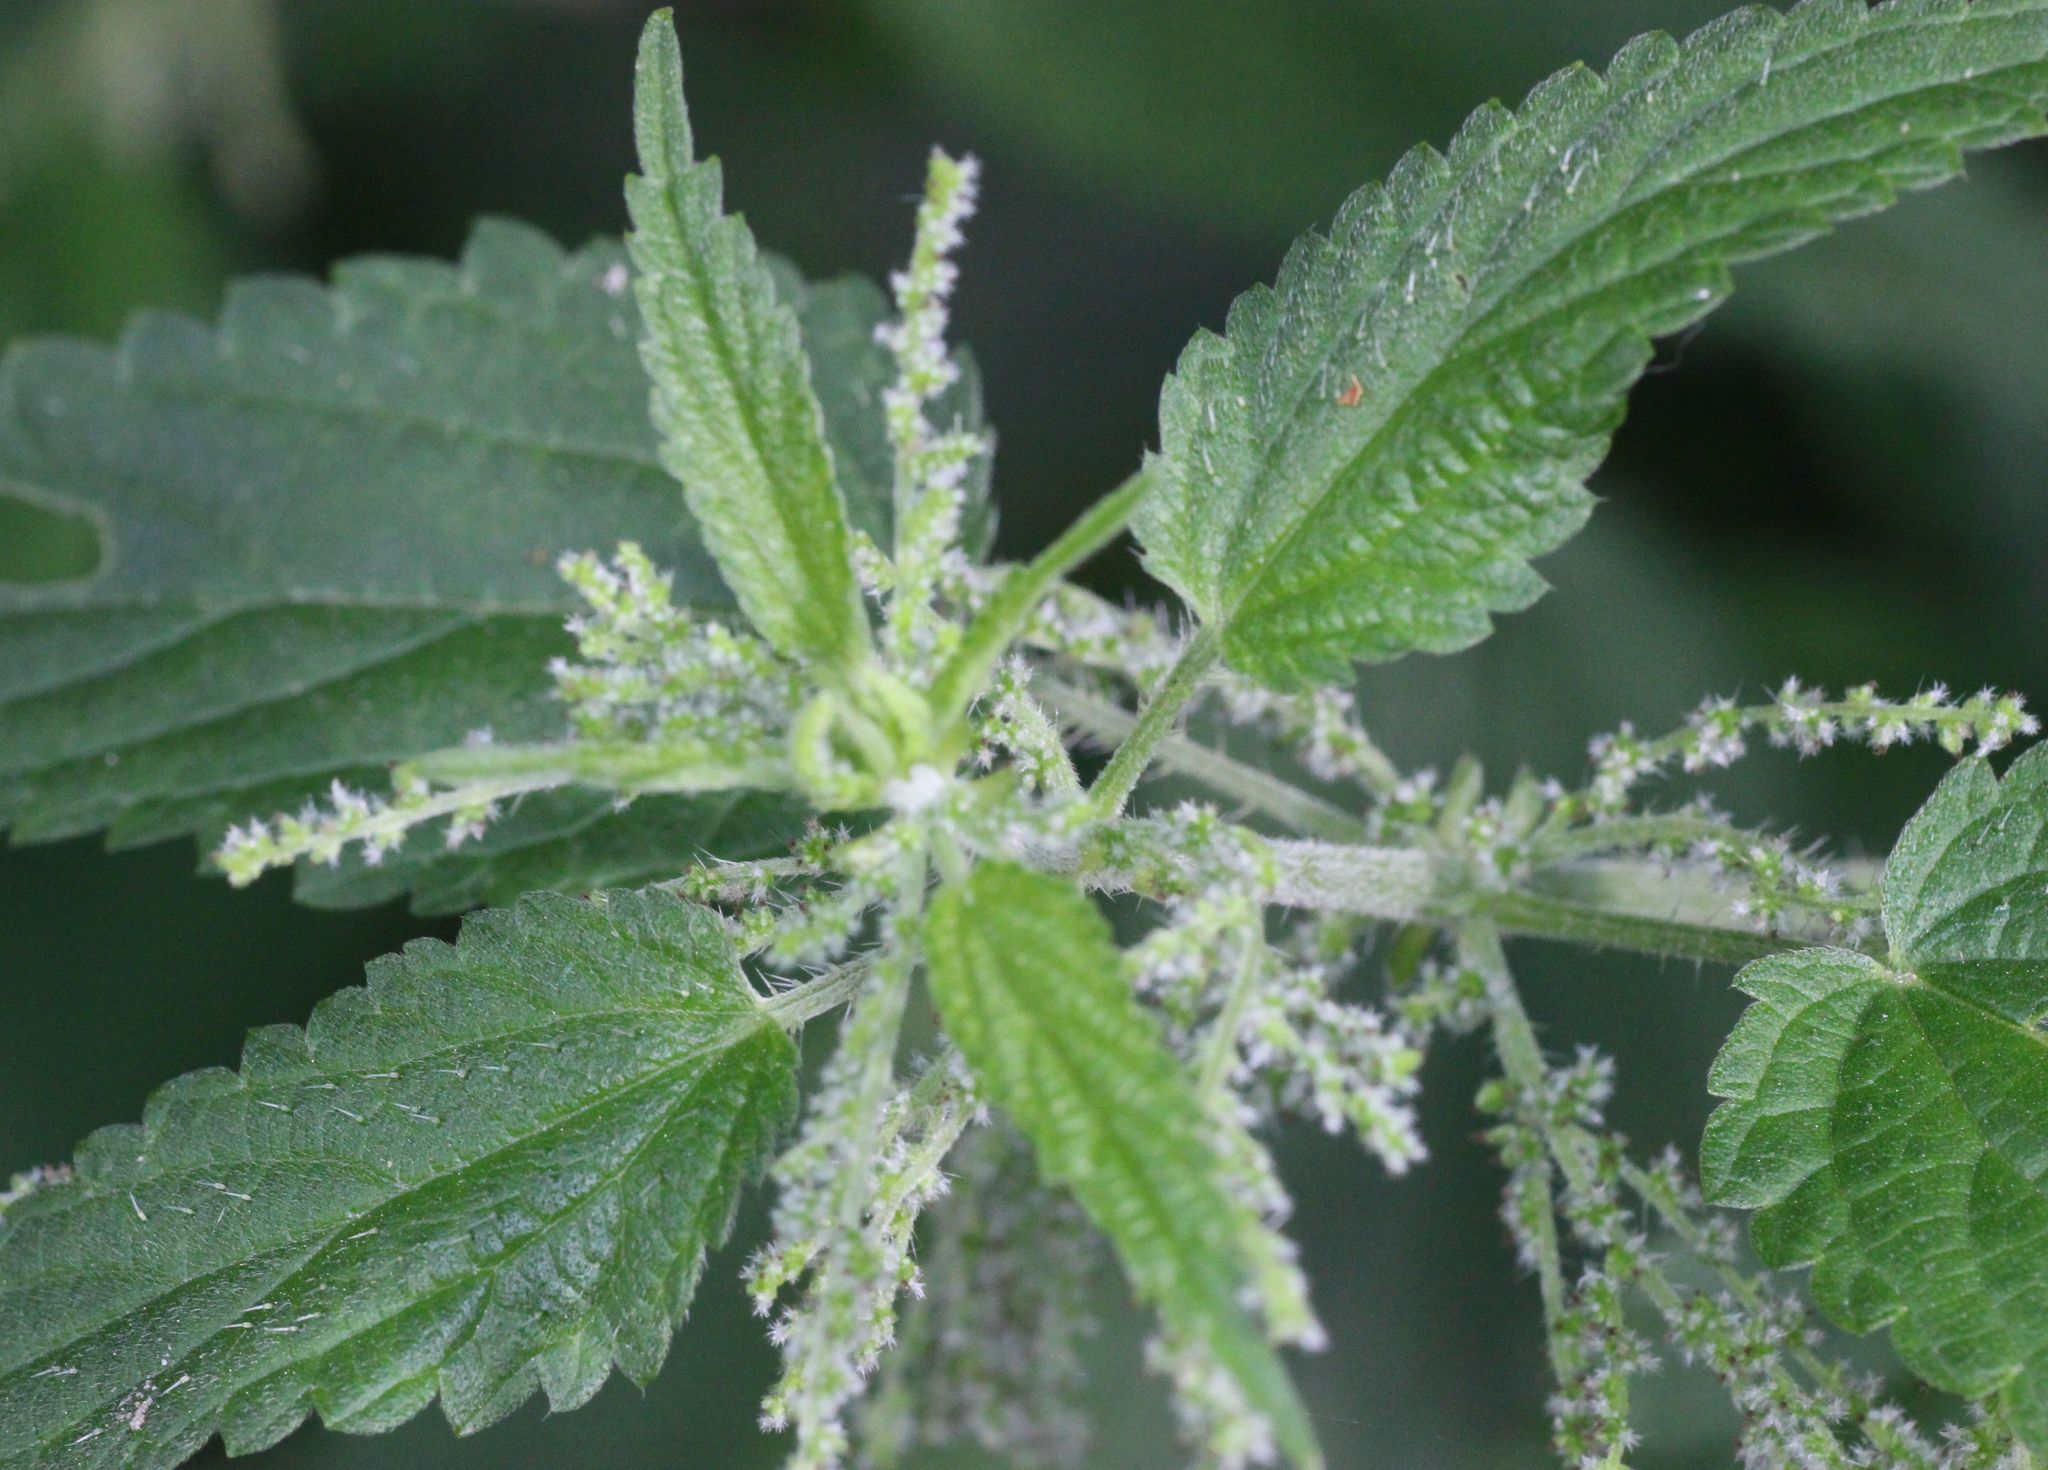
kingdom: Plantae
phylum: Tracheophyta
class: Magnoliopsida
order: Rosales
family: Urticaceae
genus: Urtica
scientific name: Urtica dioica
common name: Common nettle
